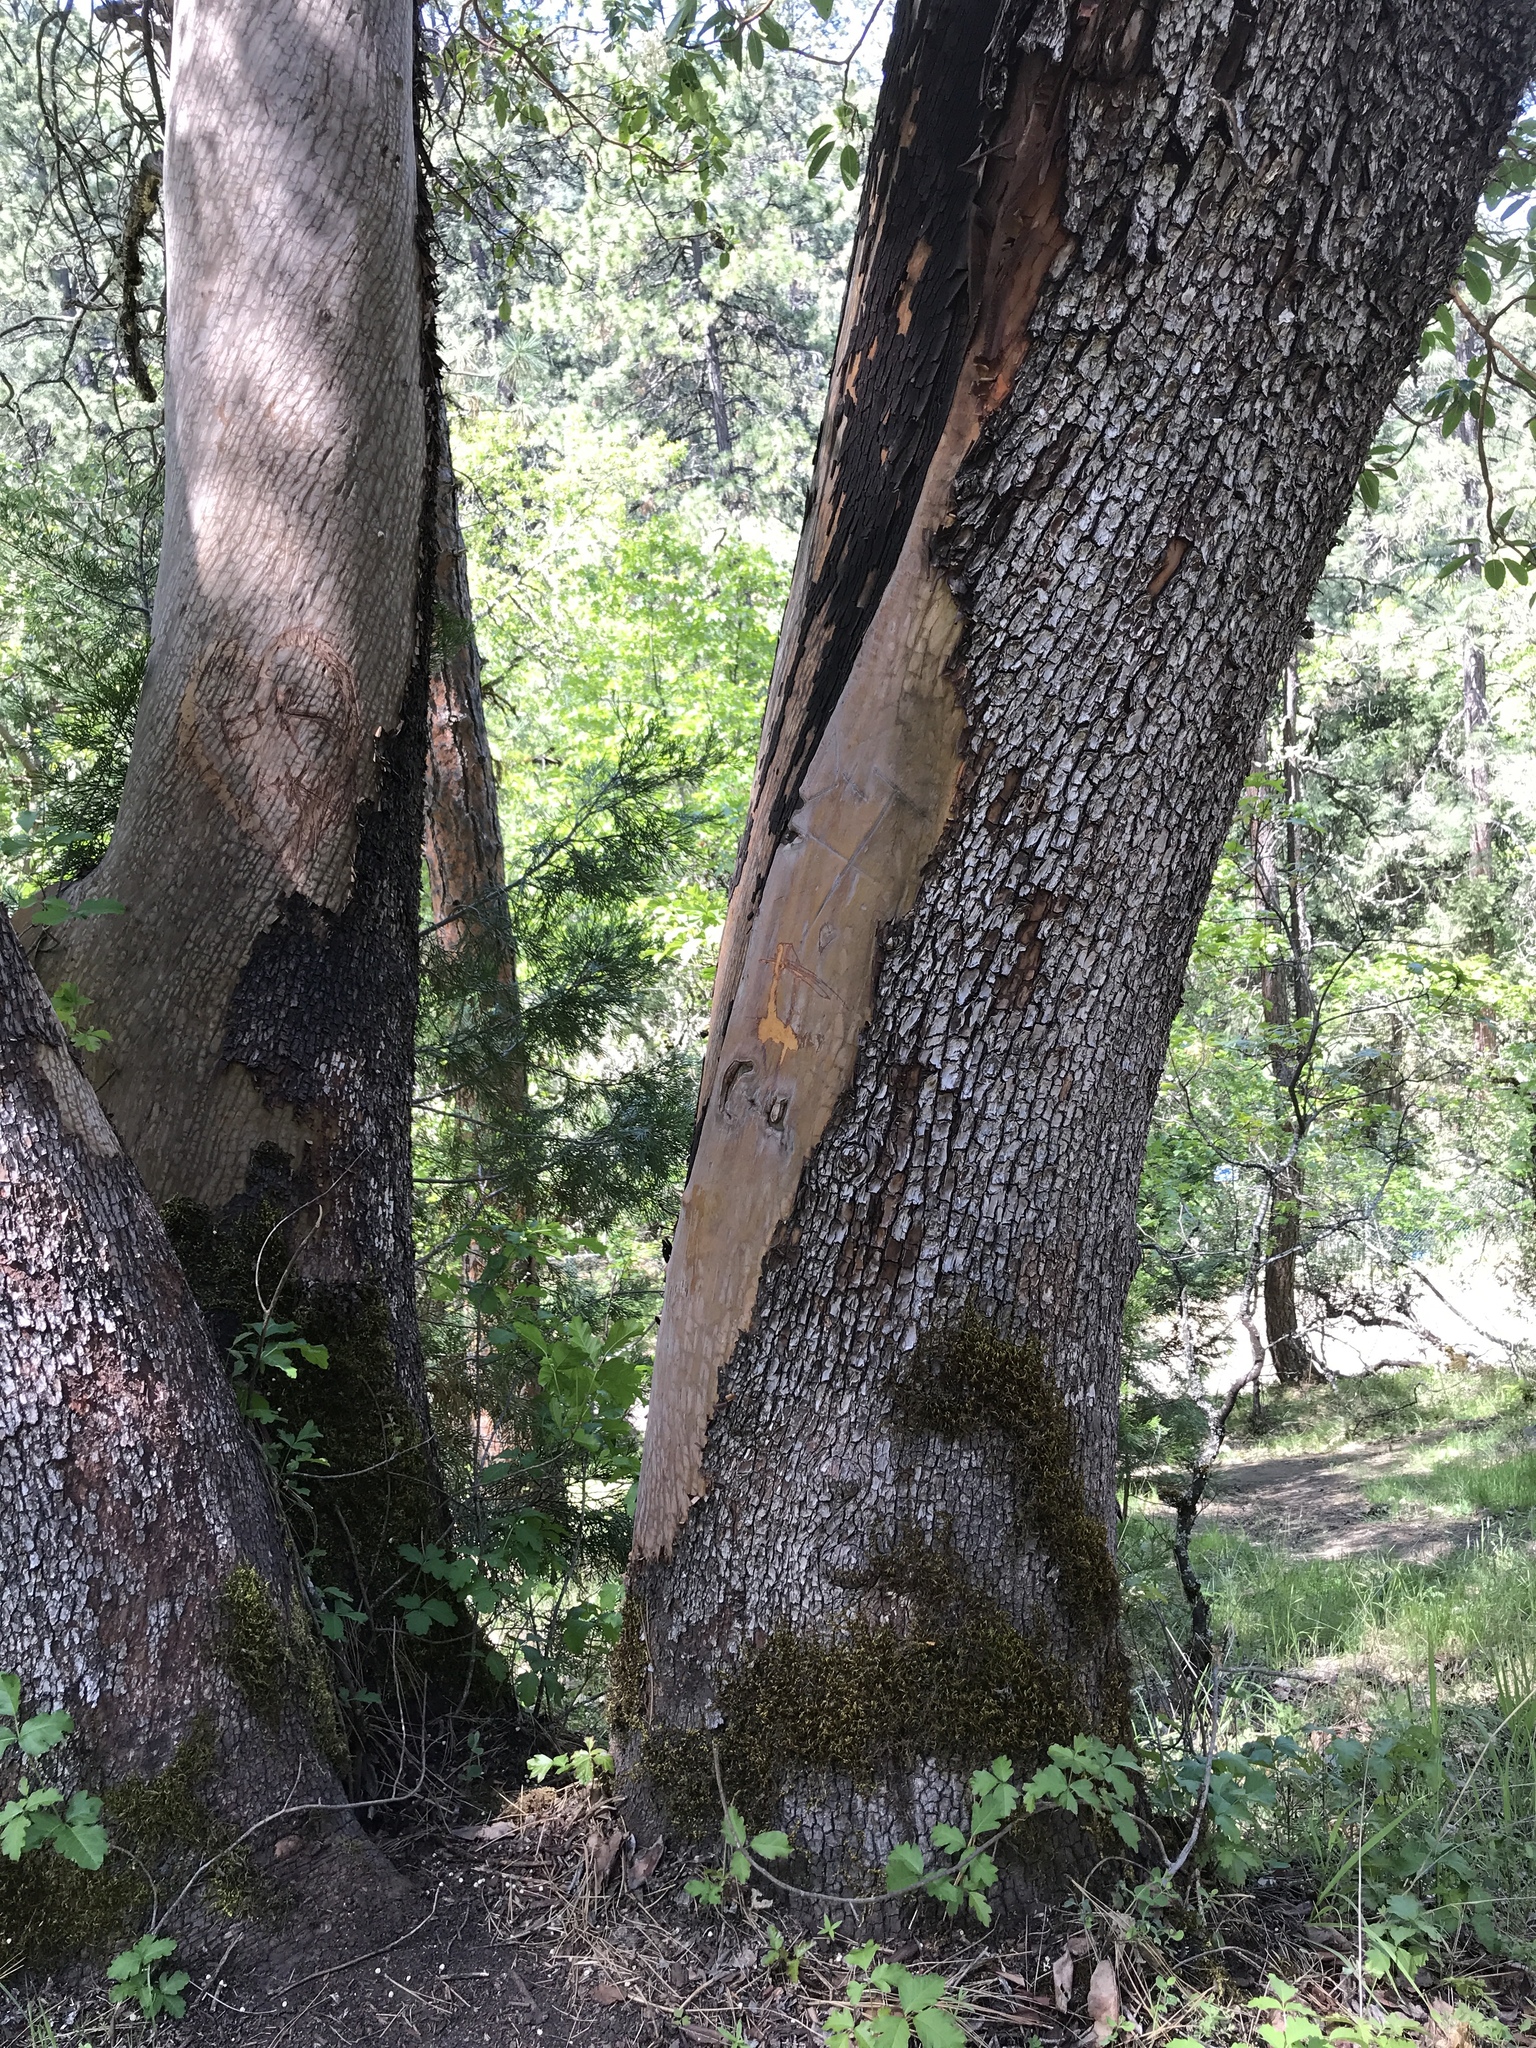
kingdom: Plantae
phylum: Tracheophyta
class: Magnoliopsida
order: Ericales
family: Ericaceae
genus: Arbutus
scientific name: Arbutus menziesii
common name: Pacific madrone
